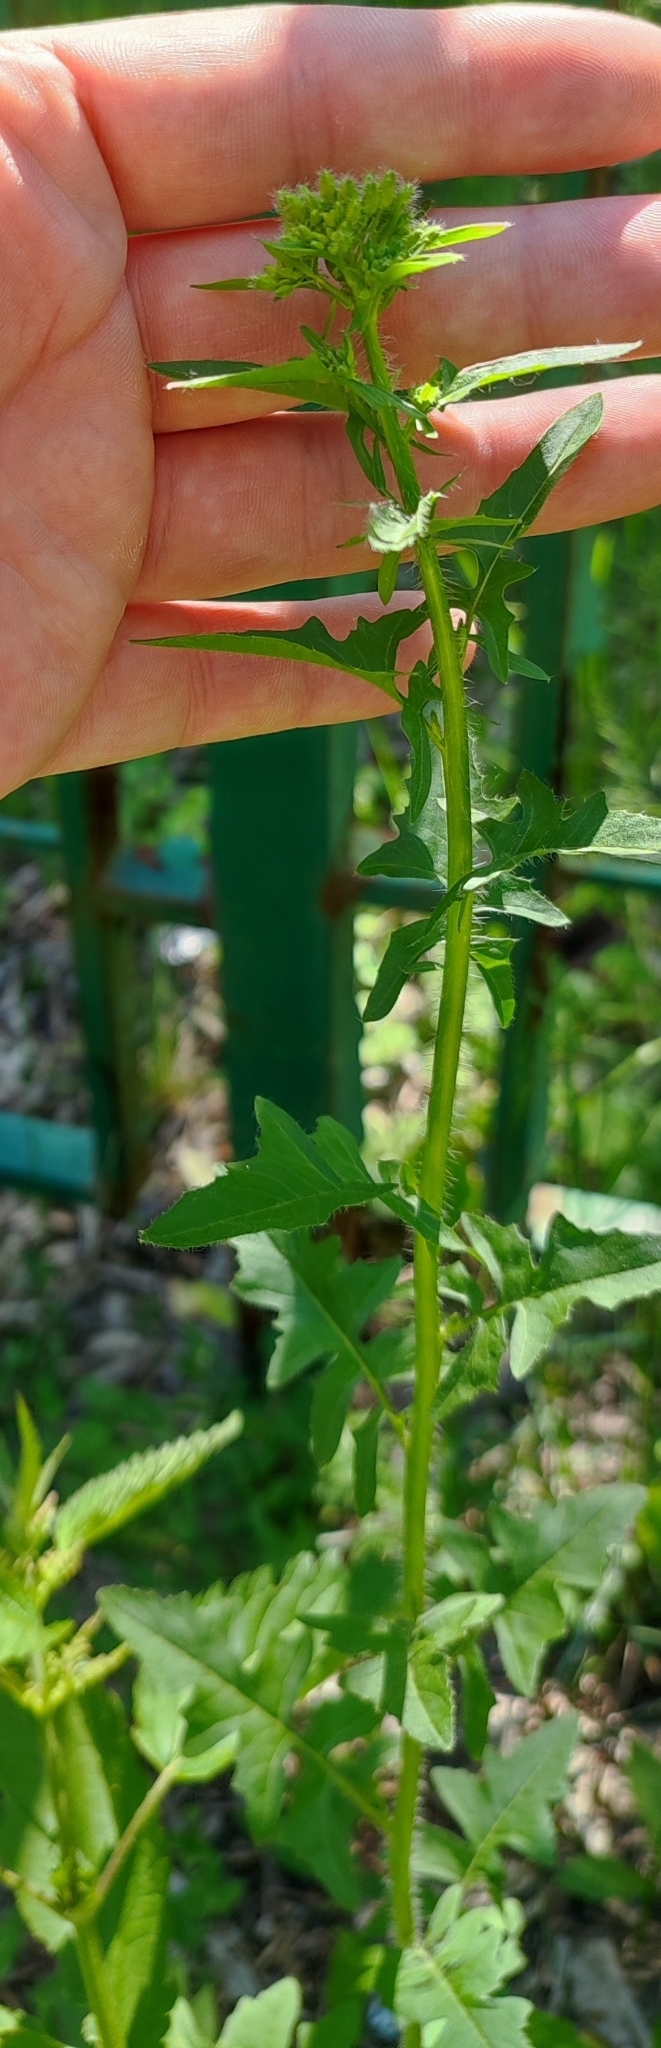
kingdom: Plantae
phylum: Tracheophyta
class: Magnoliopsida
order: Brassicales
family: Brassicaceae
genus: Sisymbrium
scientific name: Sisymbrium loeselii
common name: False london-rocket
